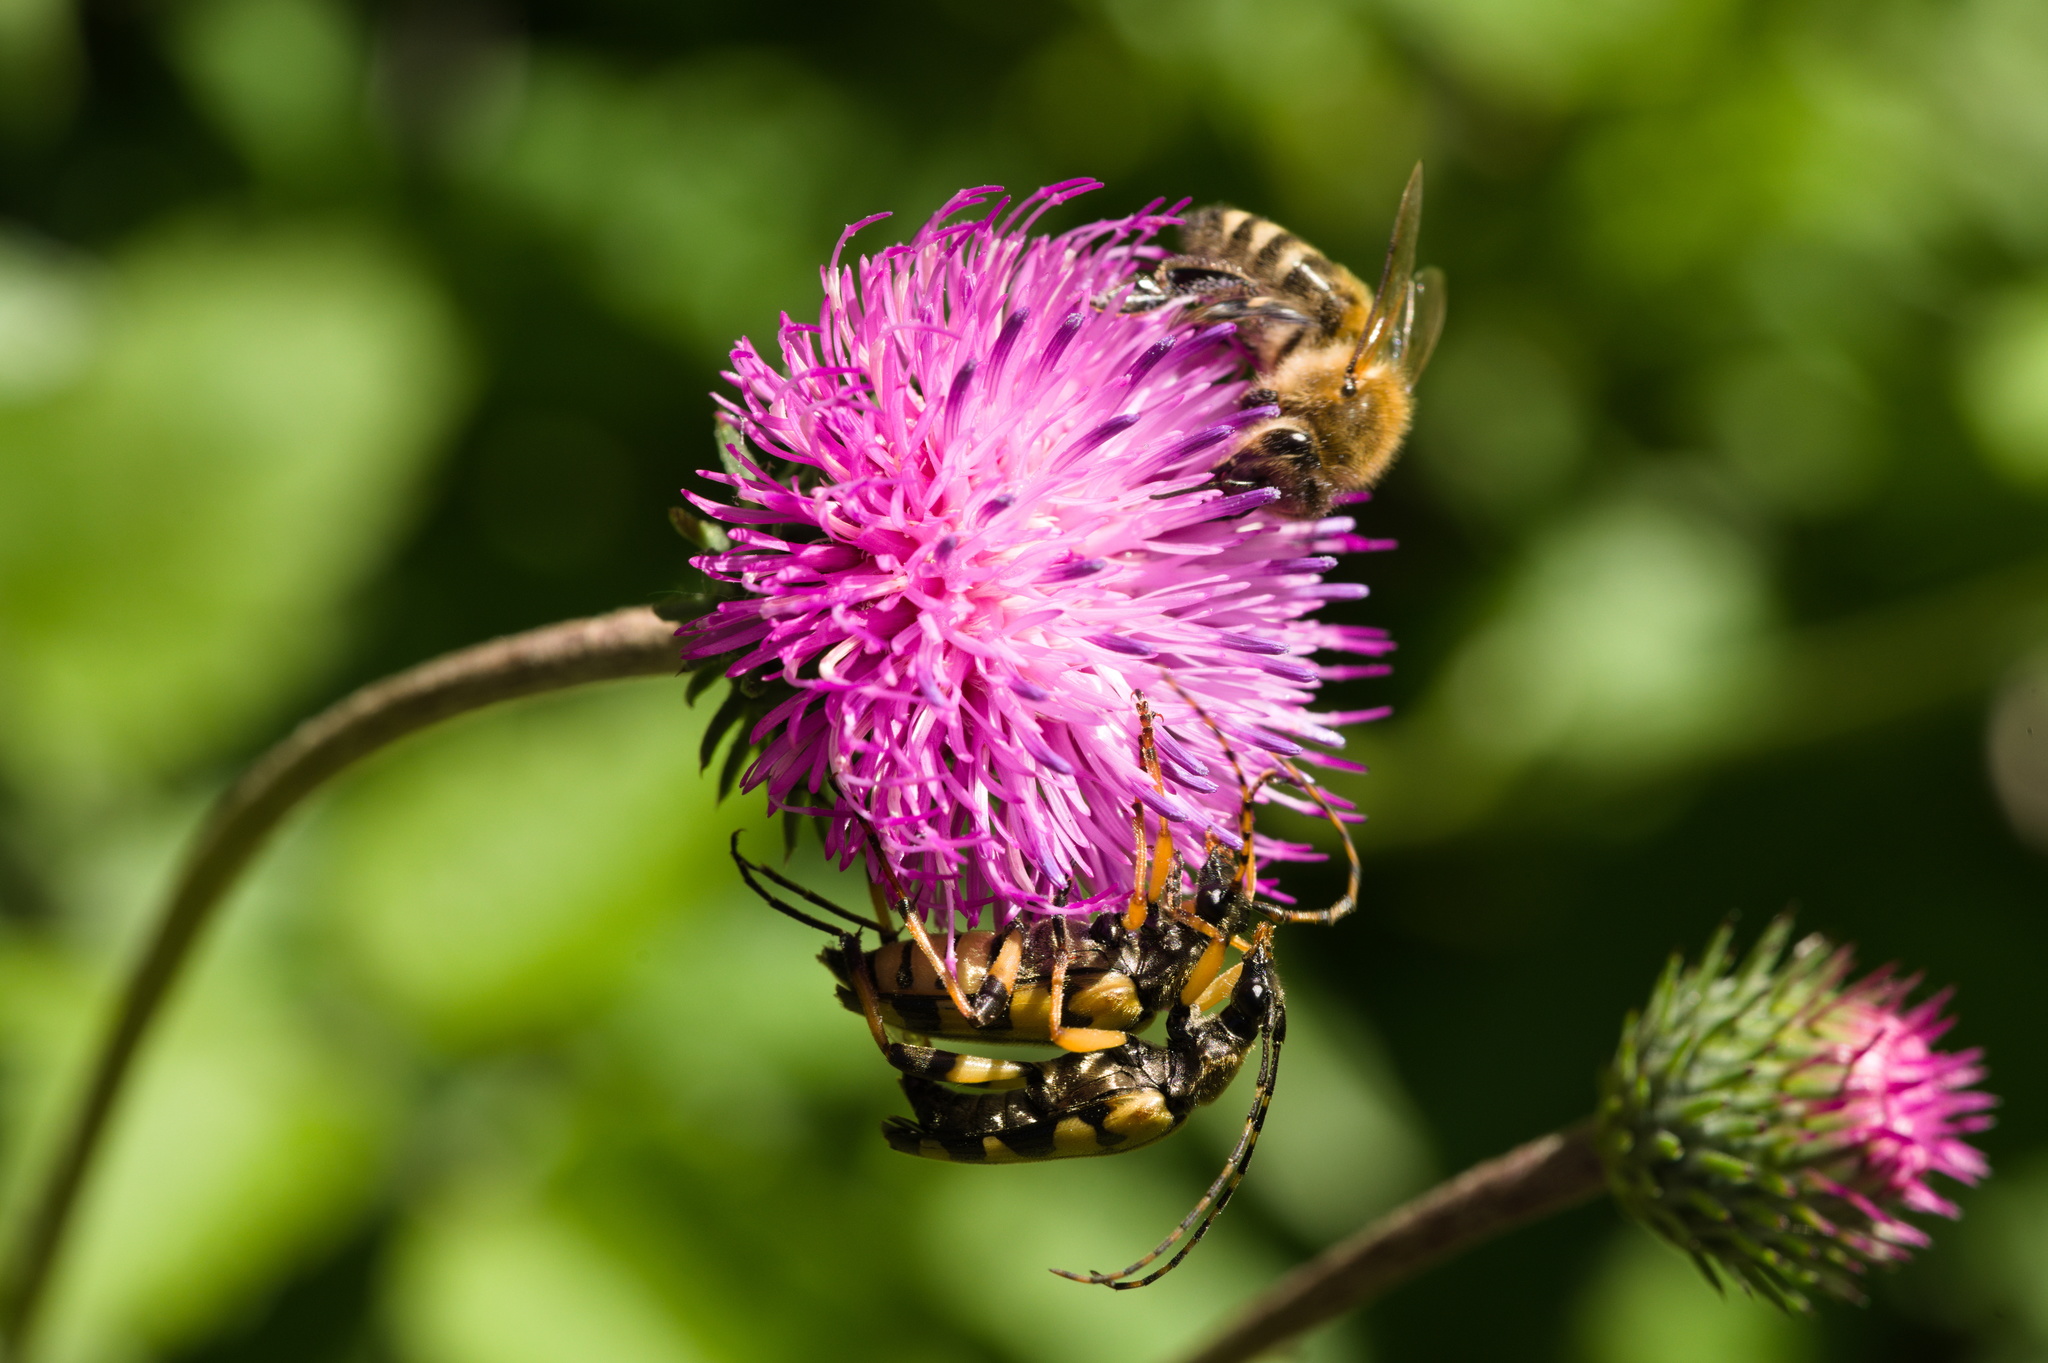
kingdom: Animalia
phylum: Arthropoda
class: Insecta
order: Coleoptera
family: Cerambycidae
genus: Rutpela
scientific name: Rutpela maculata
